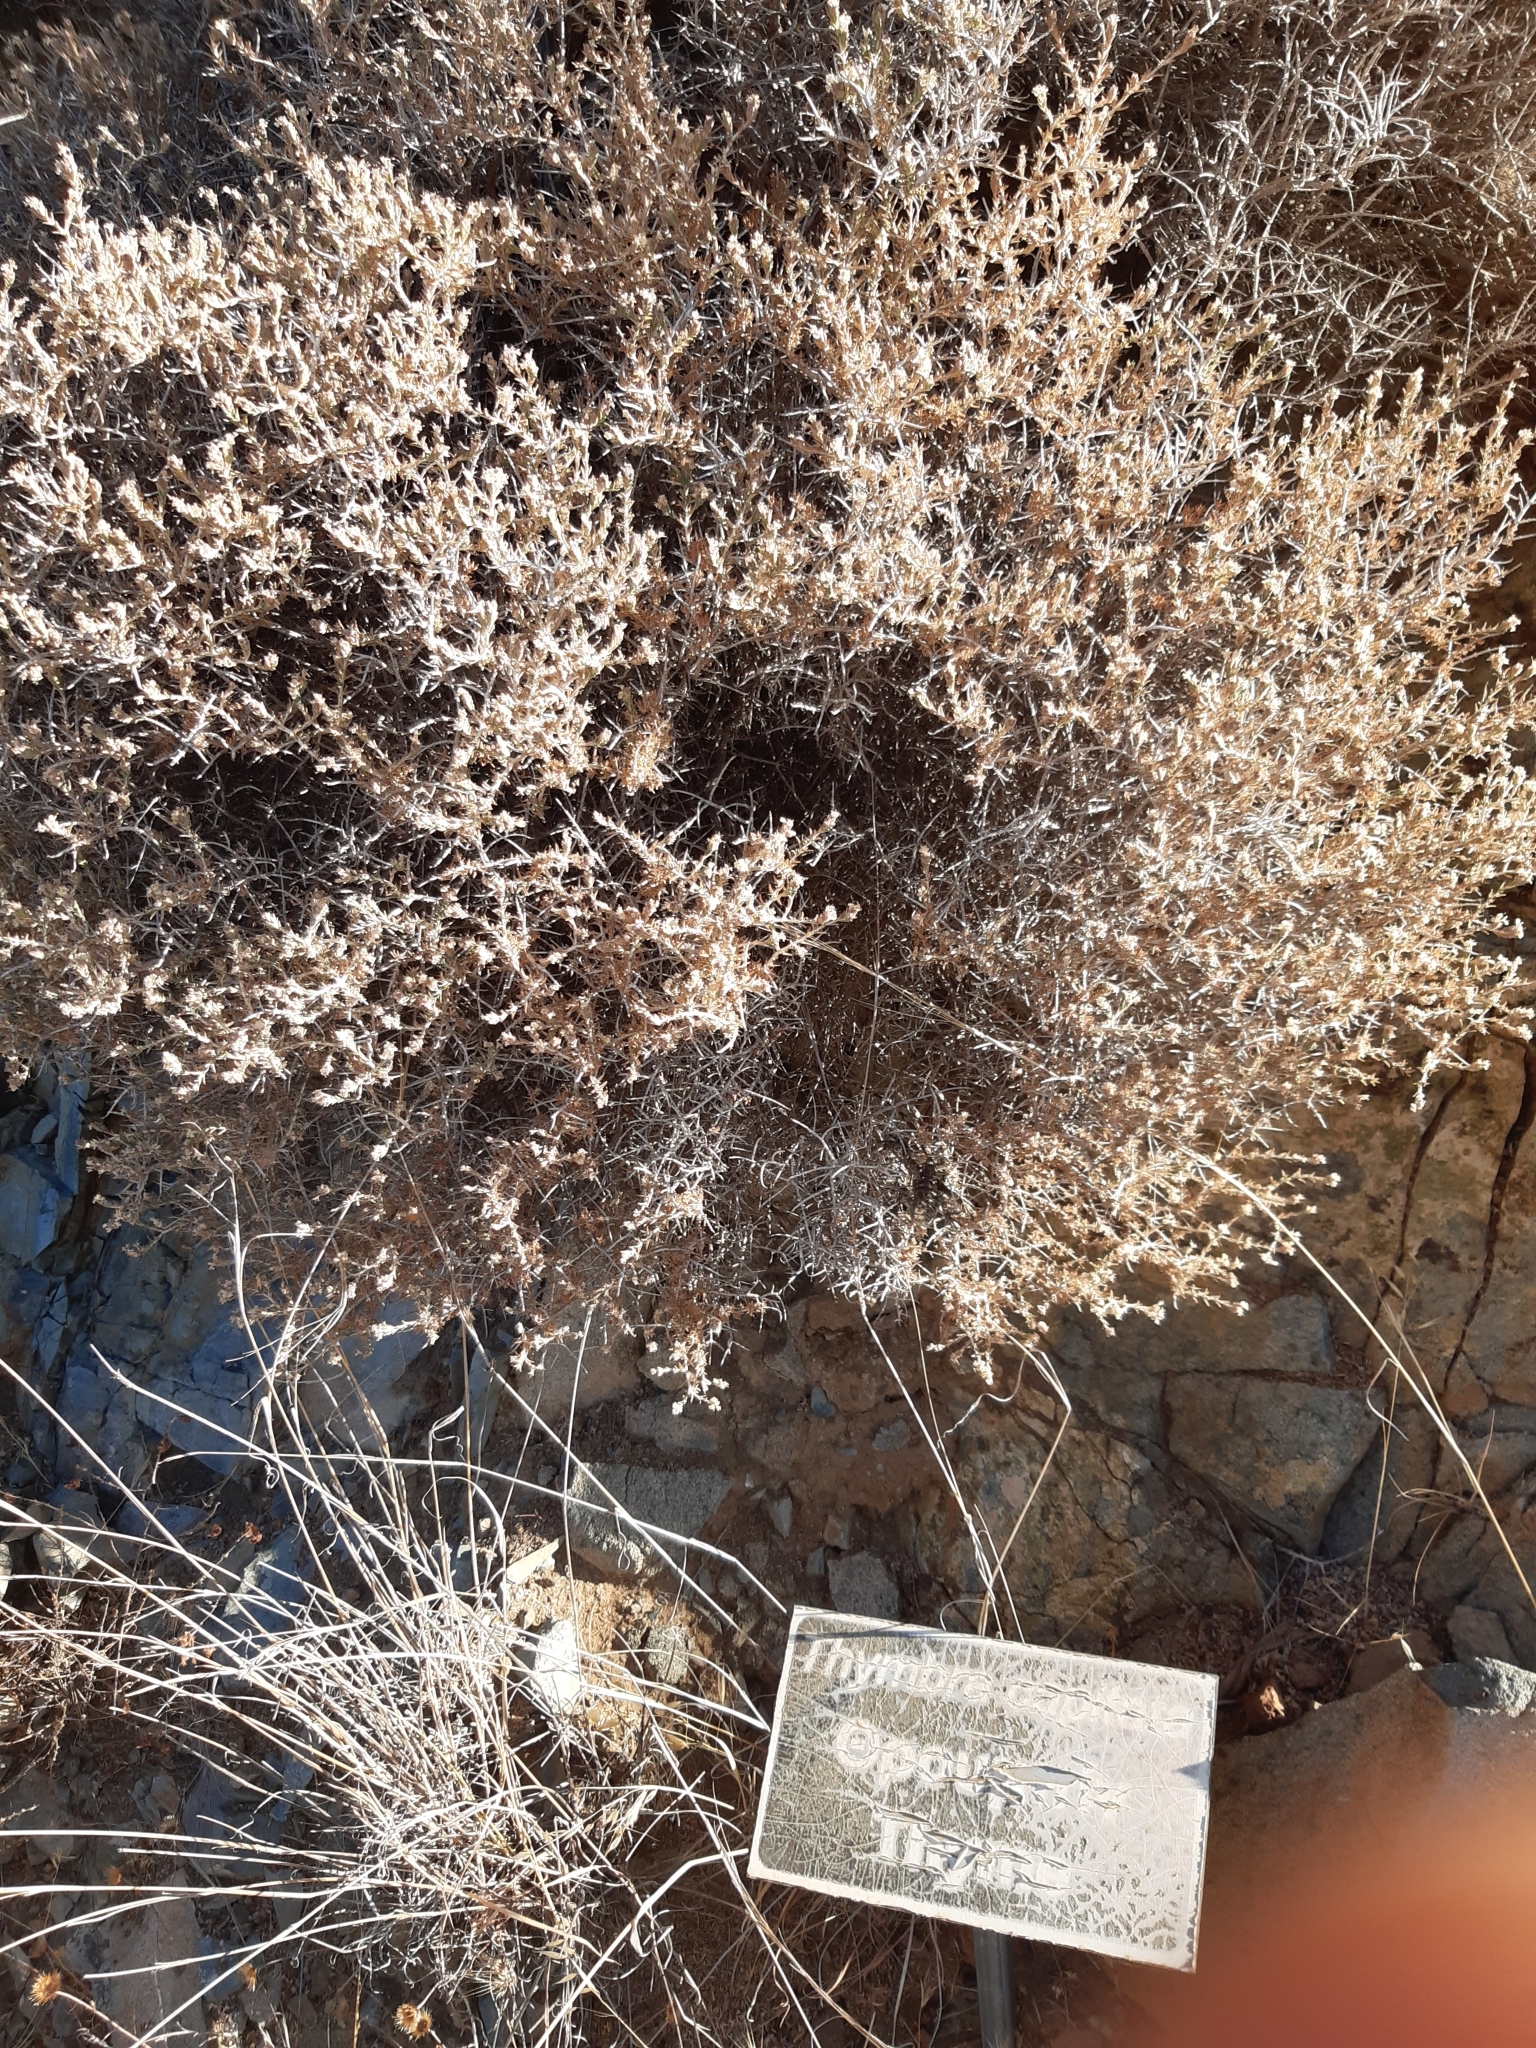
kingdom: Plantae
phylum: Tracheophyta
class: Magnoliopsida
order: Lamiales
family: Lamiaceae
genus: Thymbra
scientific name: Thymbra capitata
